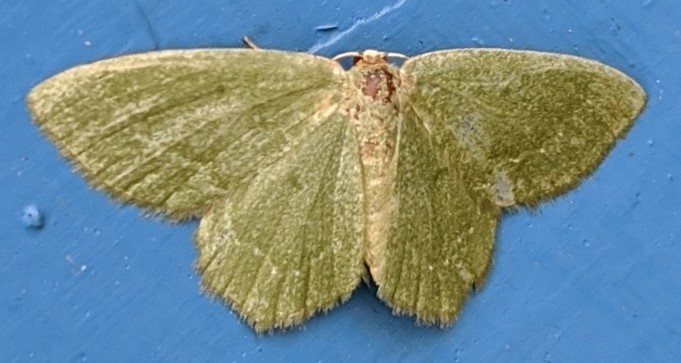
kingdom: Animalia
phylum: Arthropoda
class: Insecta
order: Lepidoptera
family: Geometridae
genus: Thalera
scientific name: Thalera pistasciaria
